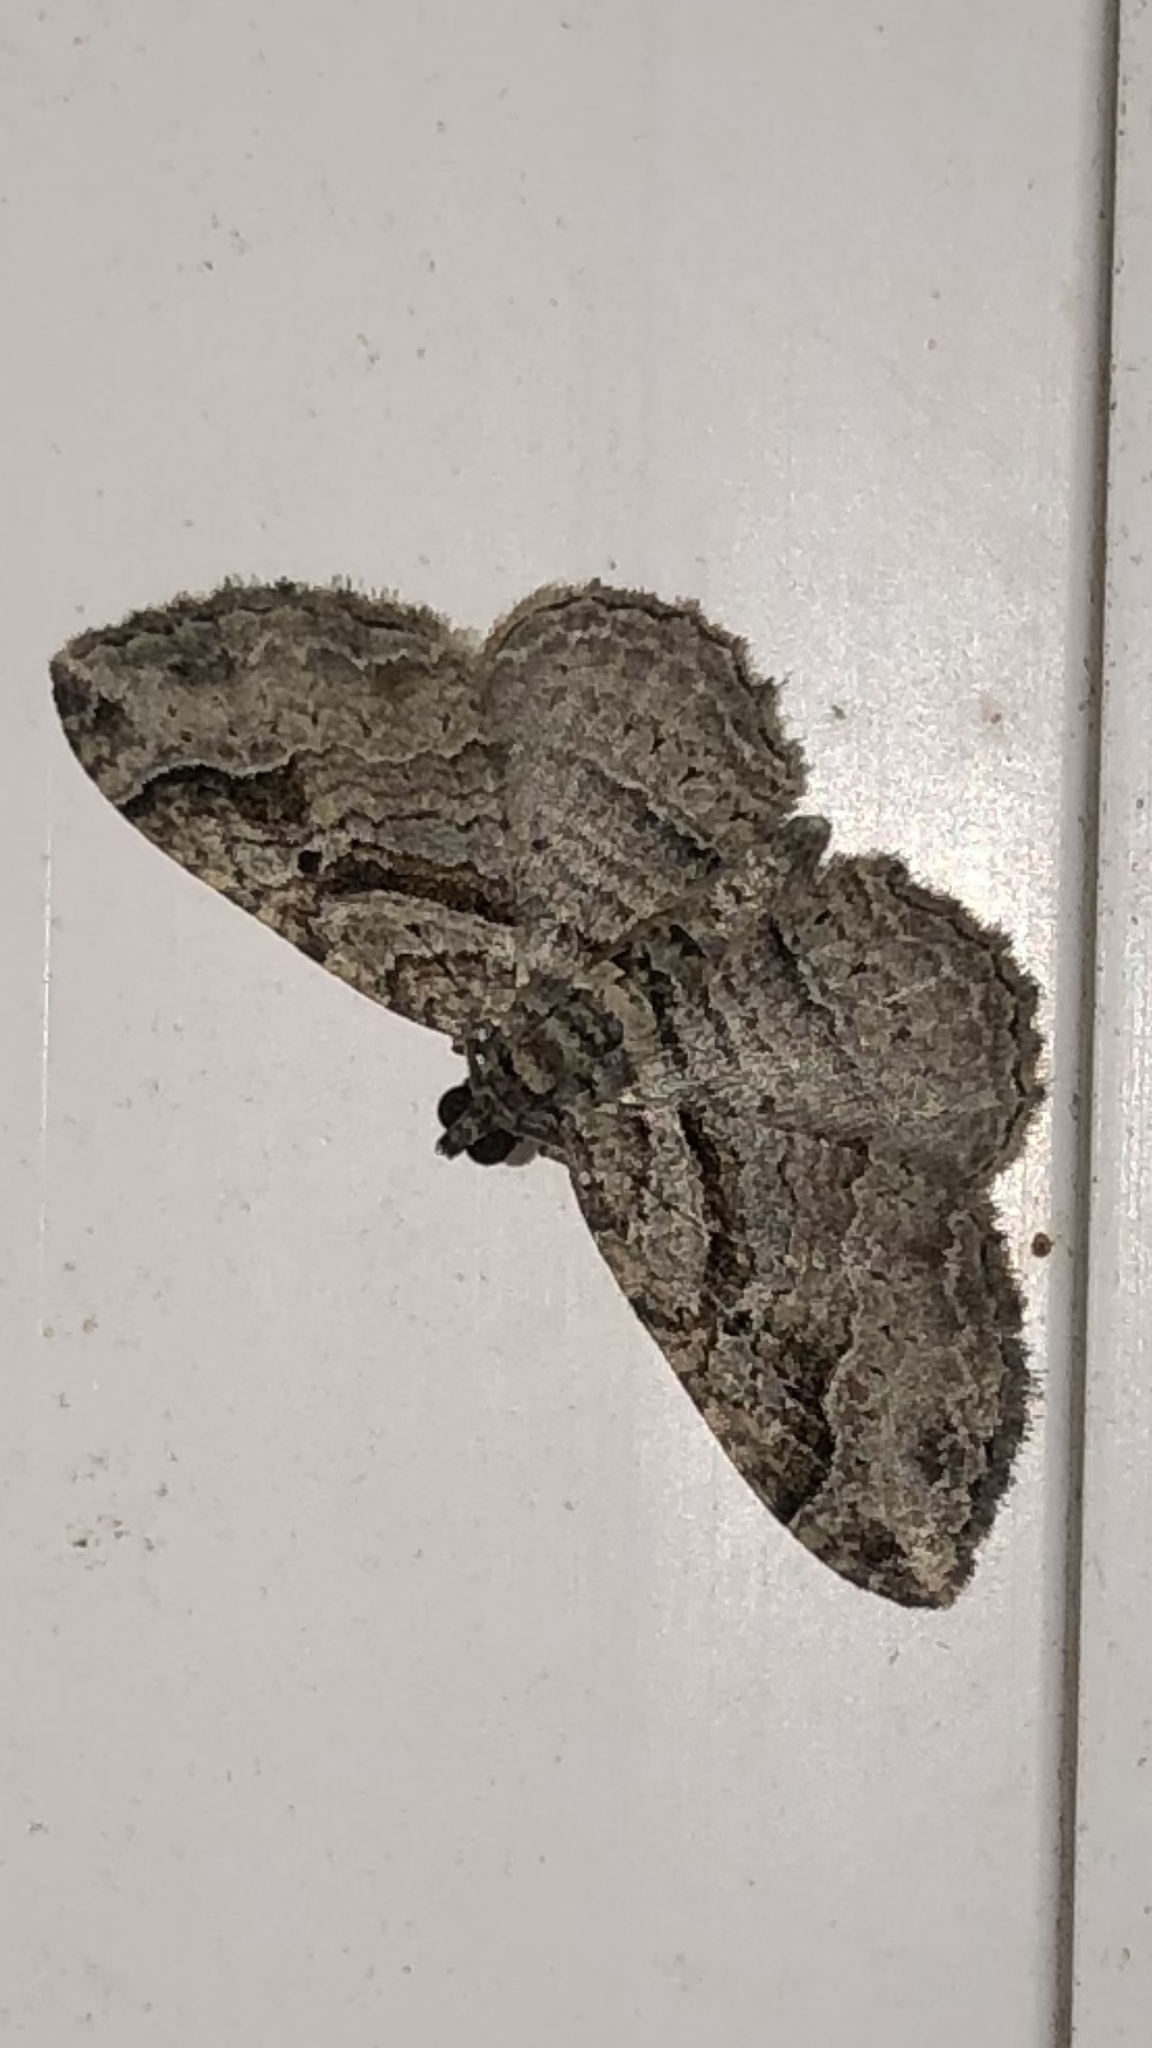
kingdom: Animalia
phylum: Arthropoda
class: Insecta
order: Lepidoptera
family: Geometridae
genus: Costaconvexa
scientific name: Costaconvexa centrostrigaria
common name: Bent-line carpet
